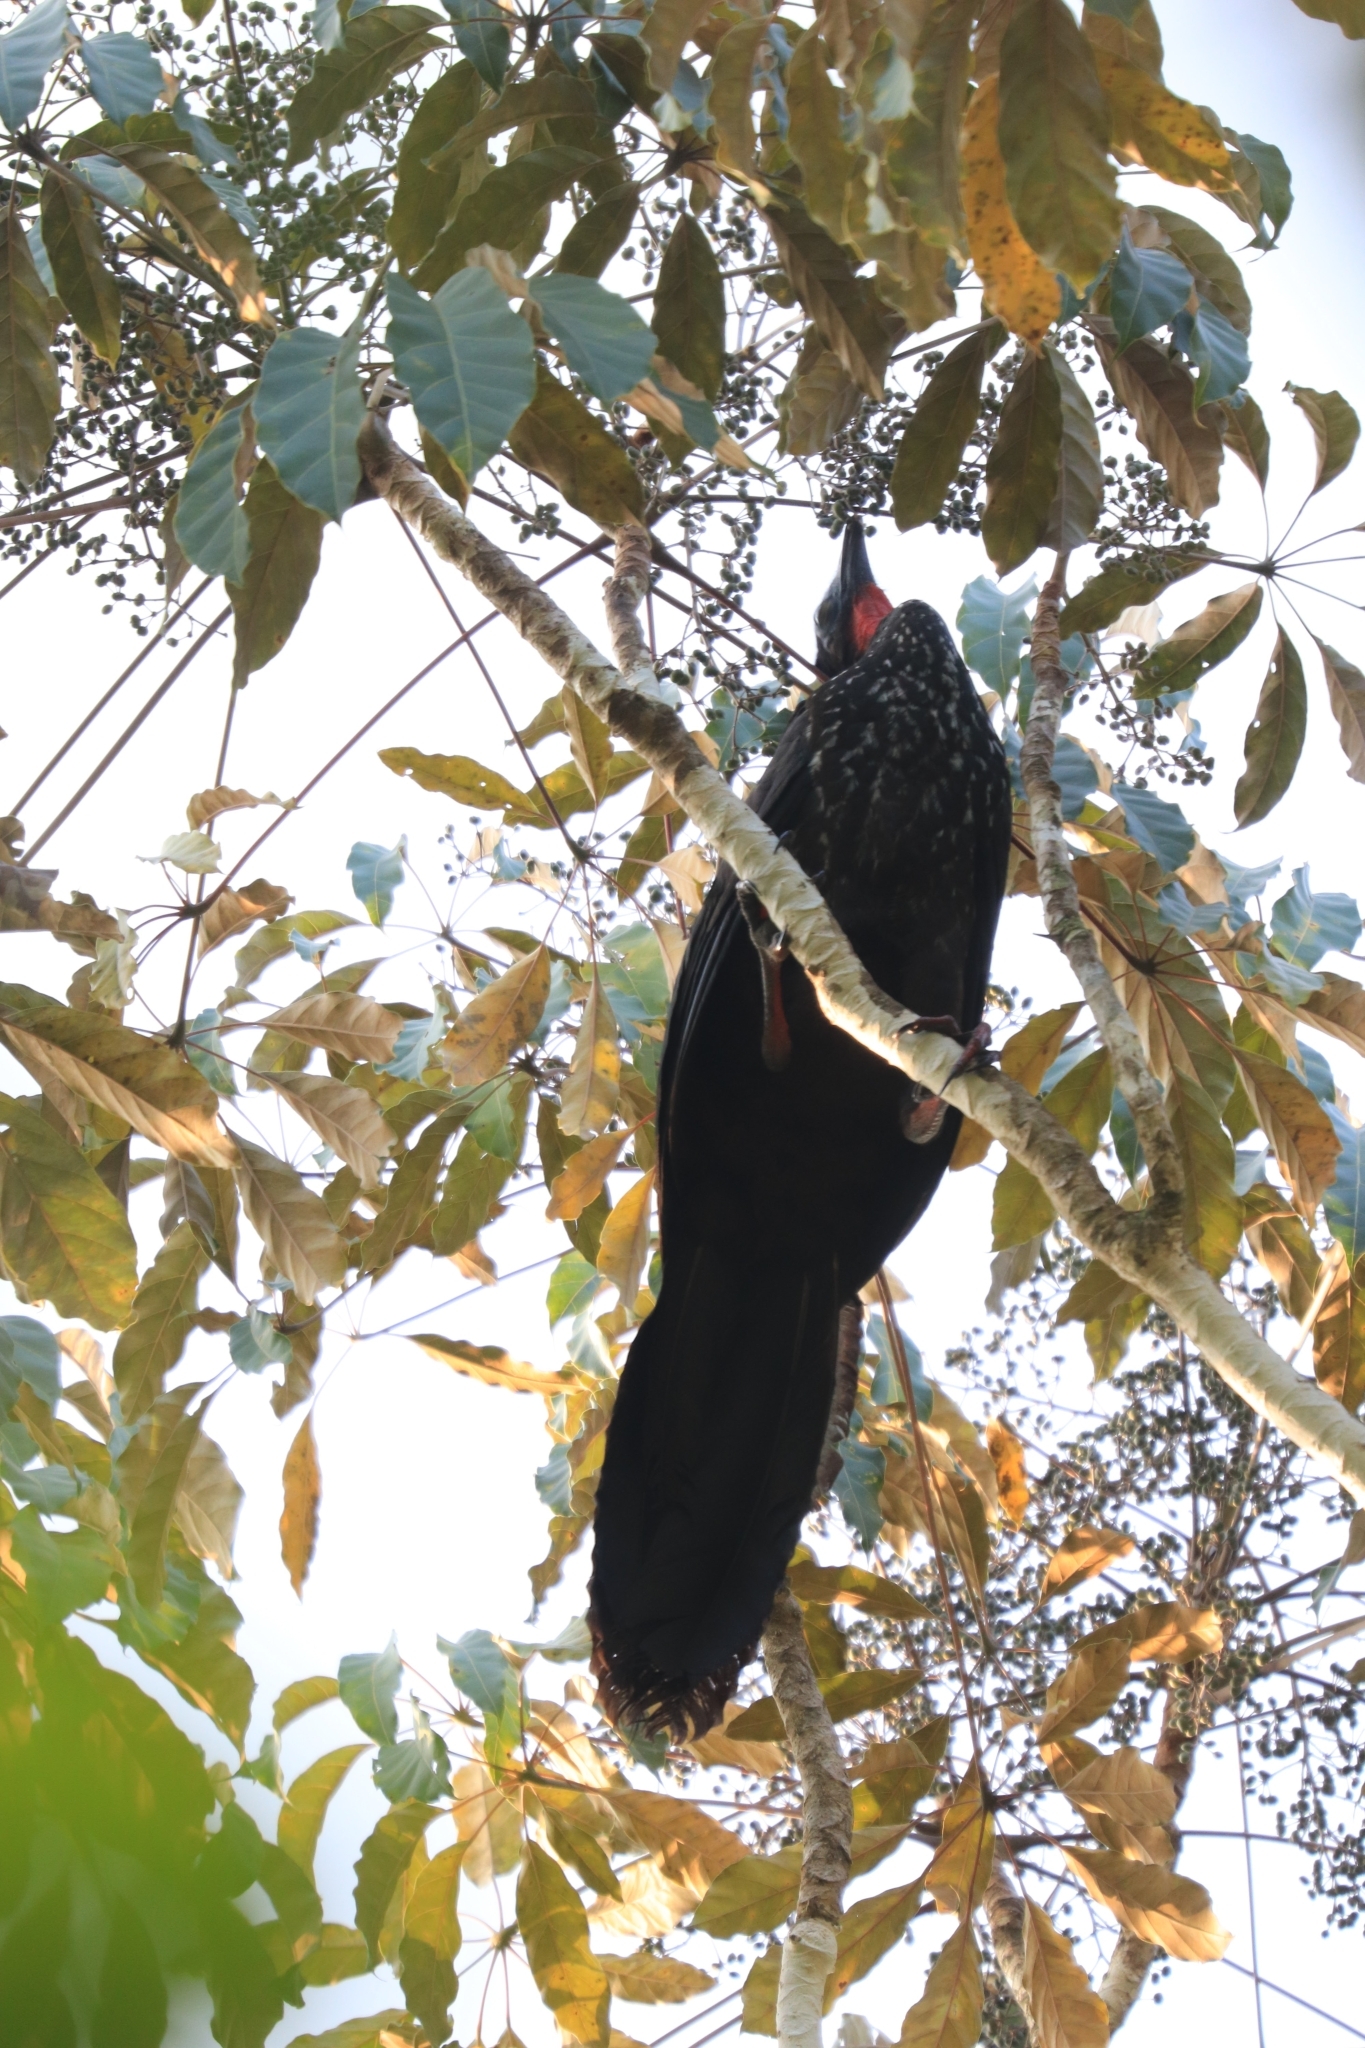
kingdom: Animalia
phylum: Chordata
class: Aves
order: Galliformes
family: Cracidae
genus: Penelope
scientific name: Penelope purpurascens
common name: Crested guan
